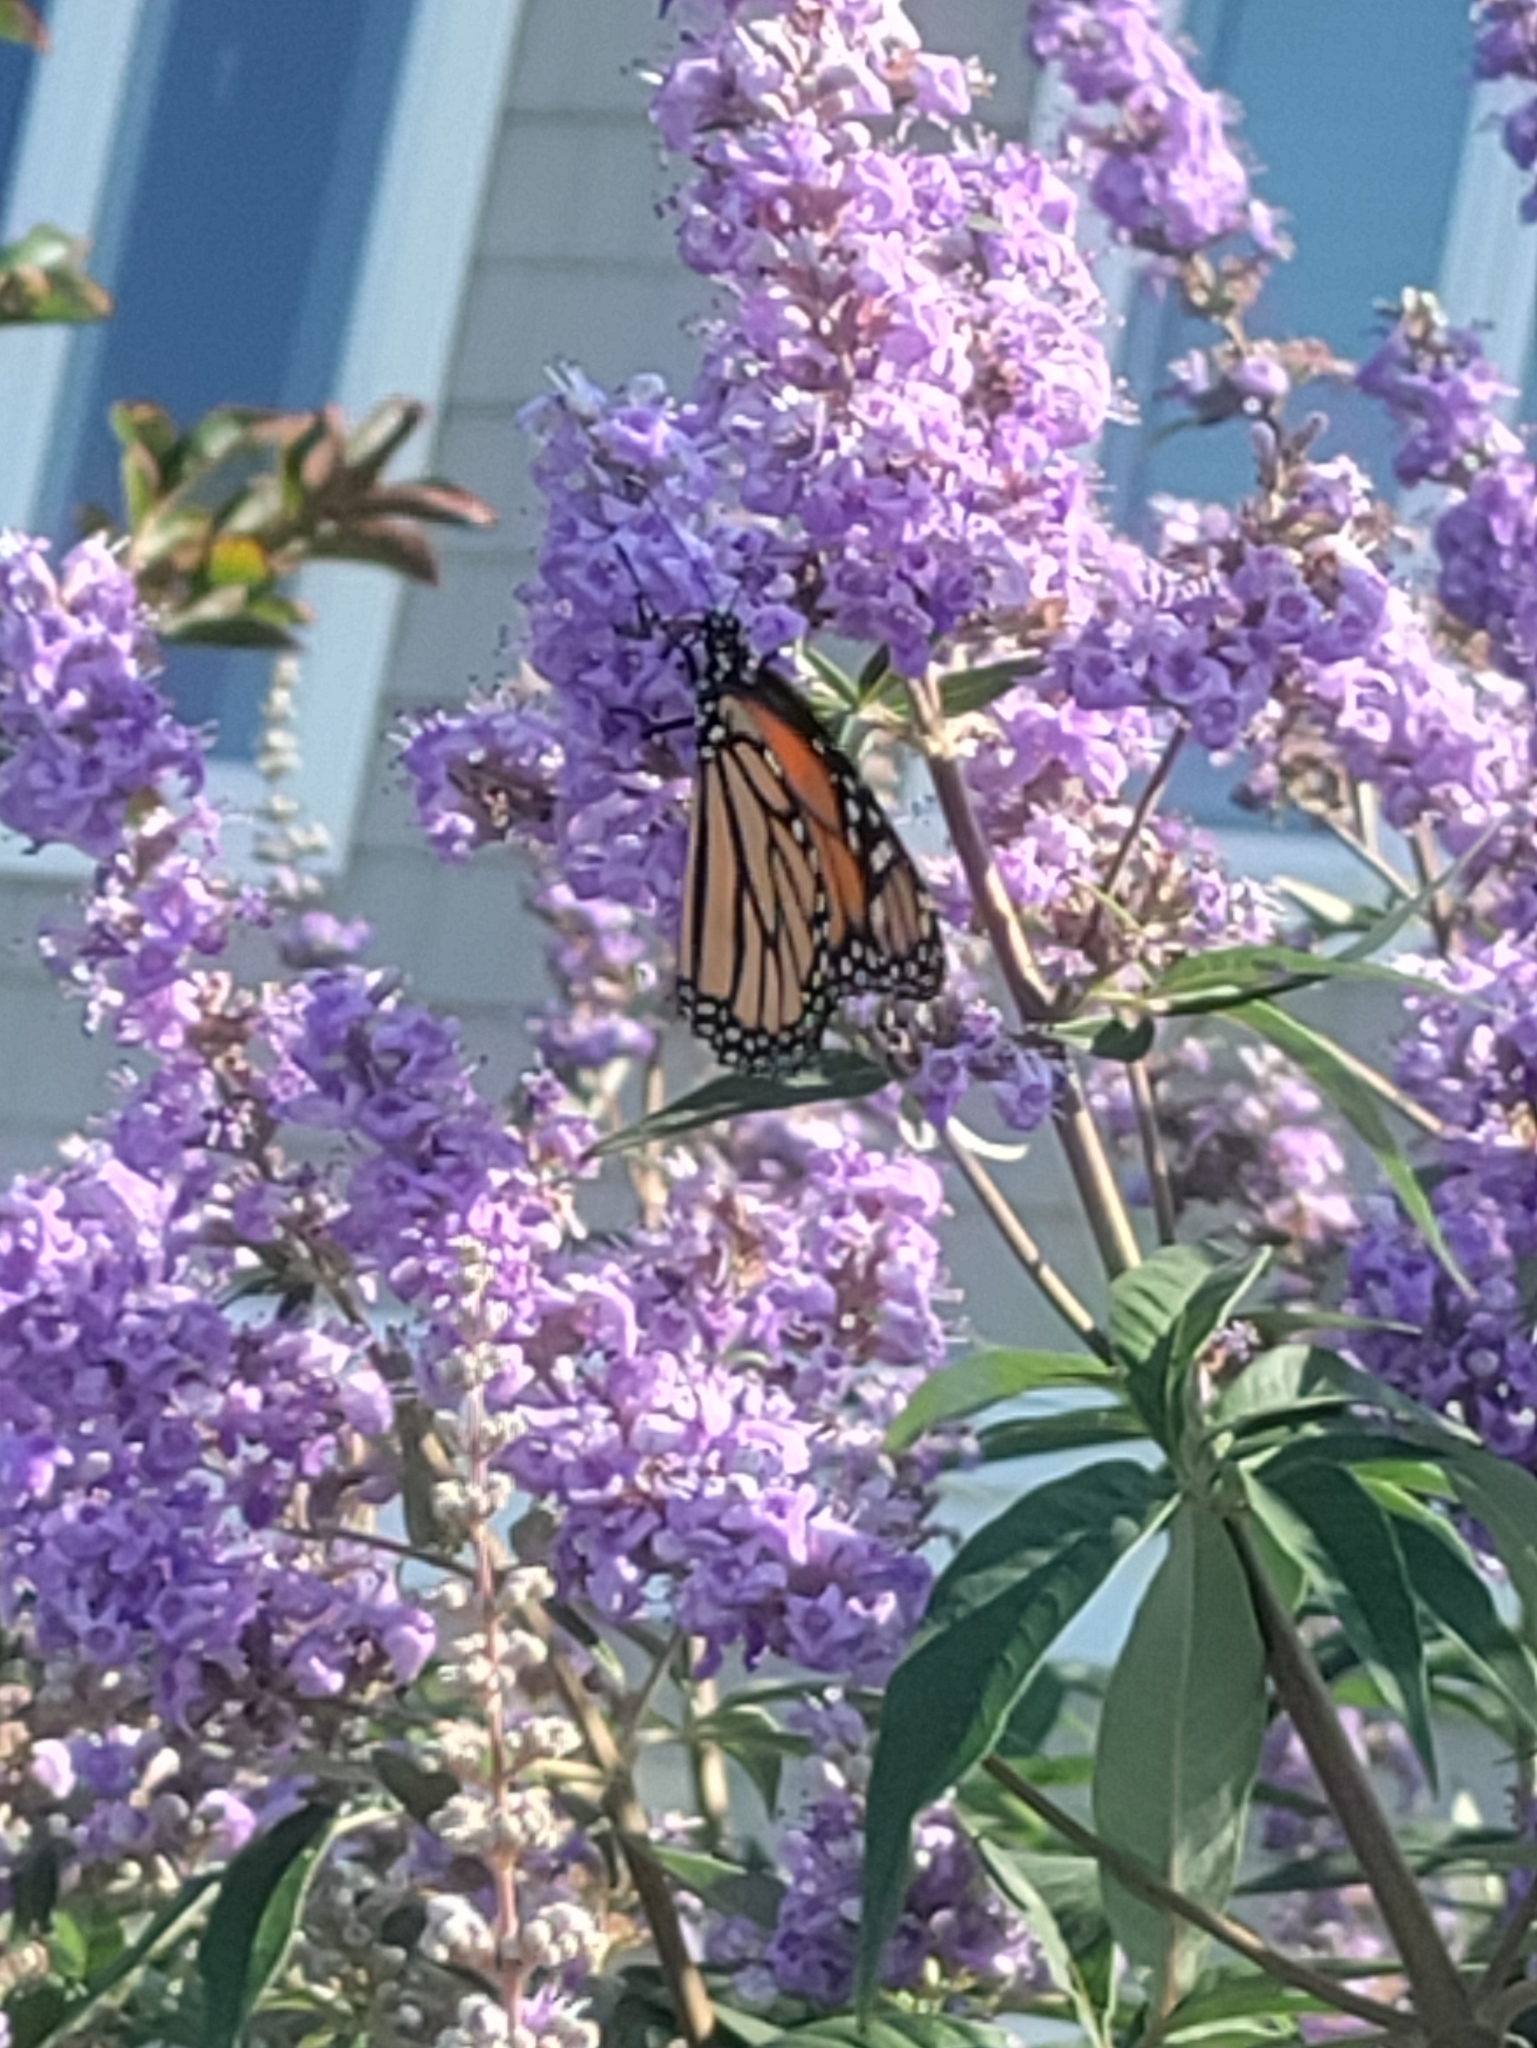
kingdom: Animalia
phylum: Arthropoda
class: Insecta
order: Lepidoptera
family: Nymphalidae
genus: Danaus
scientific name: Danaus plexippus
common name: Monarch
